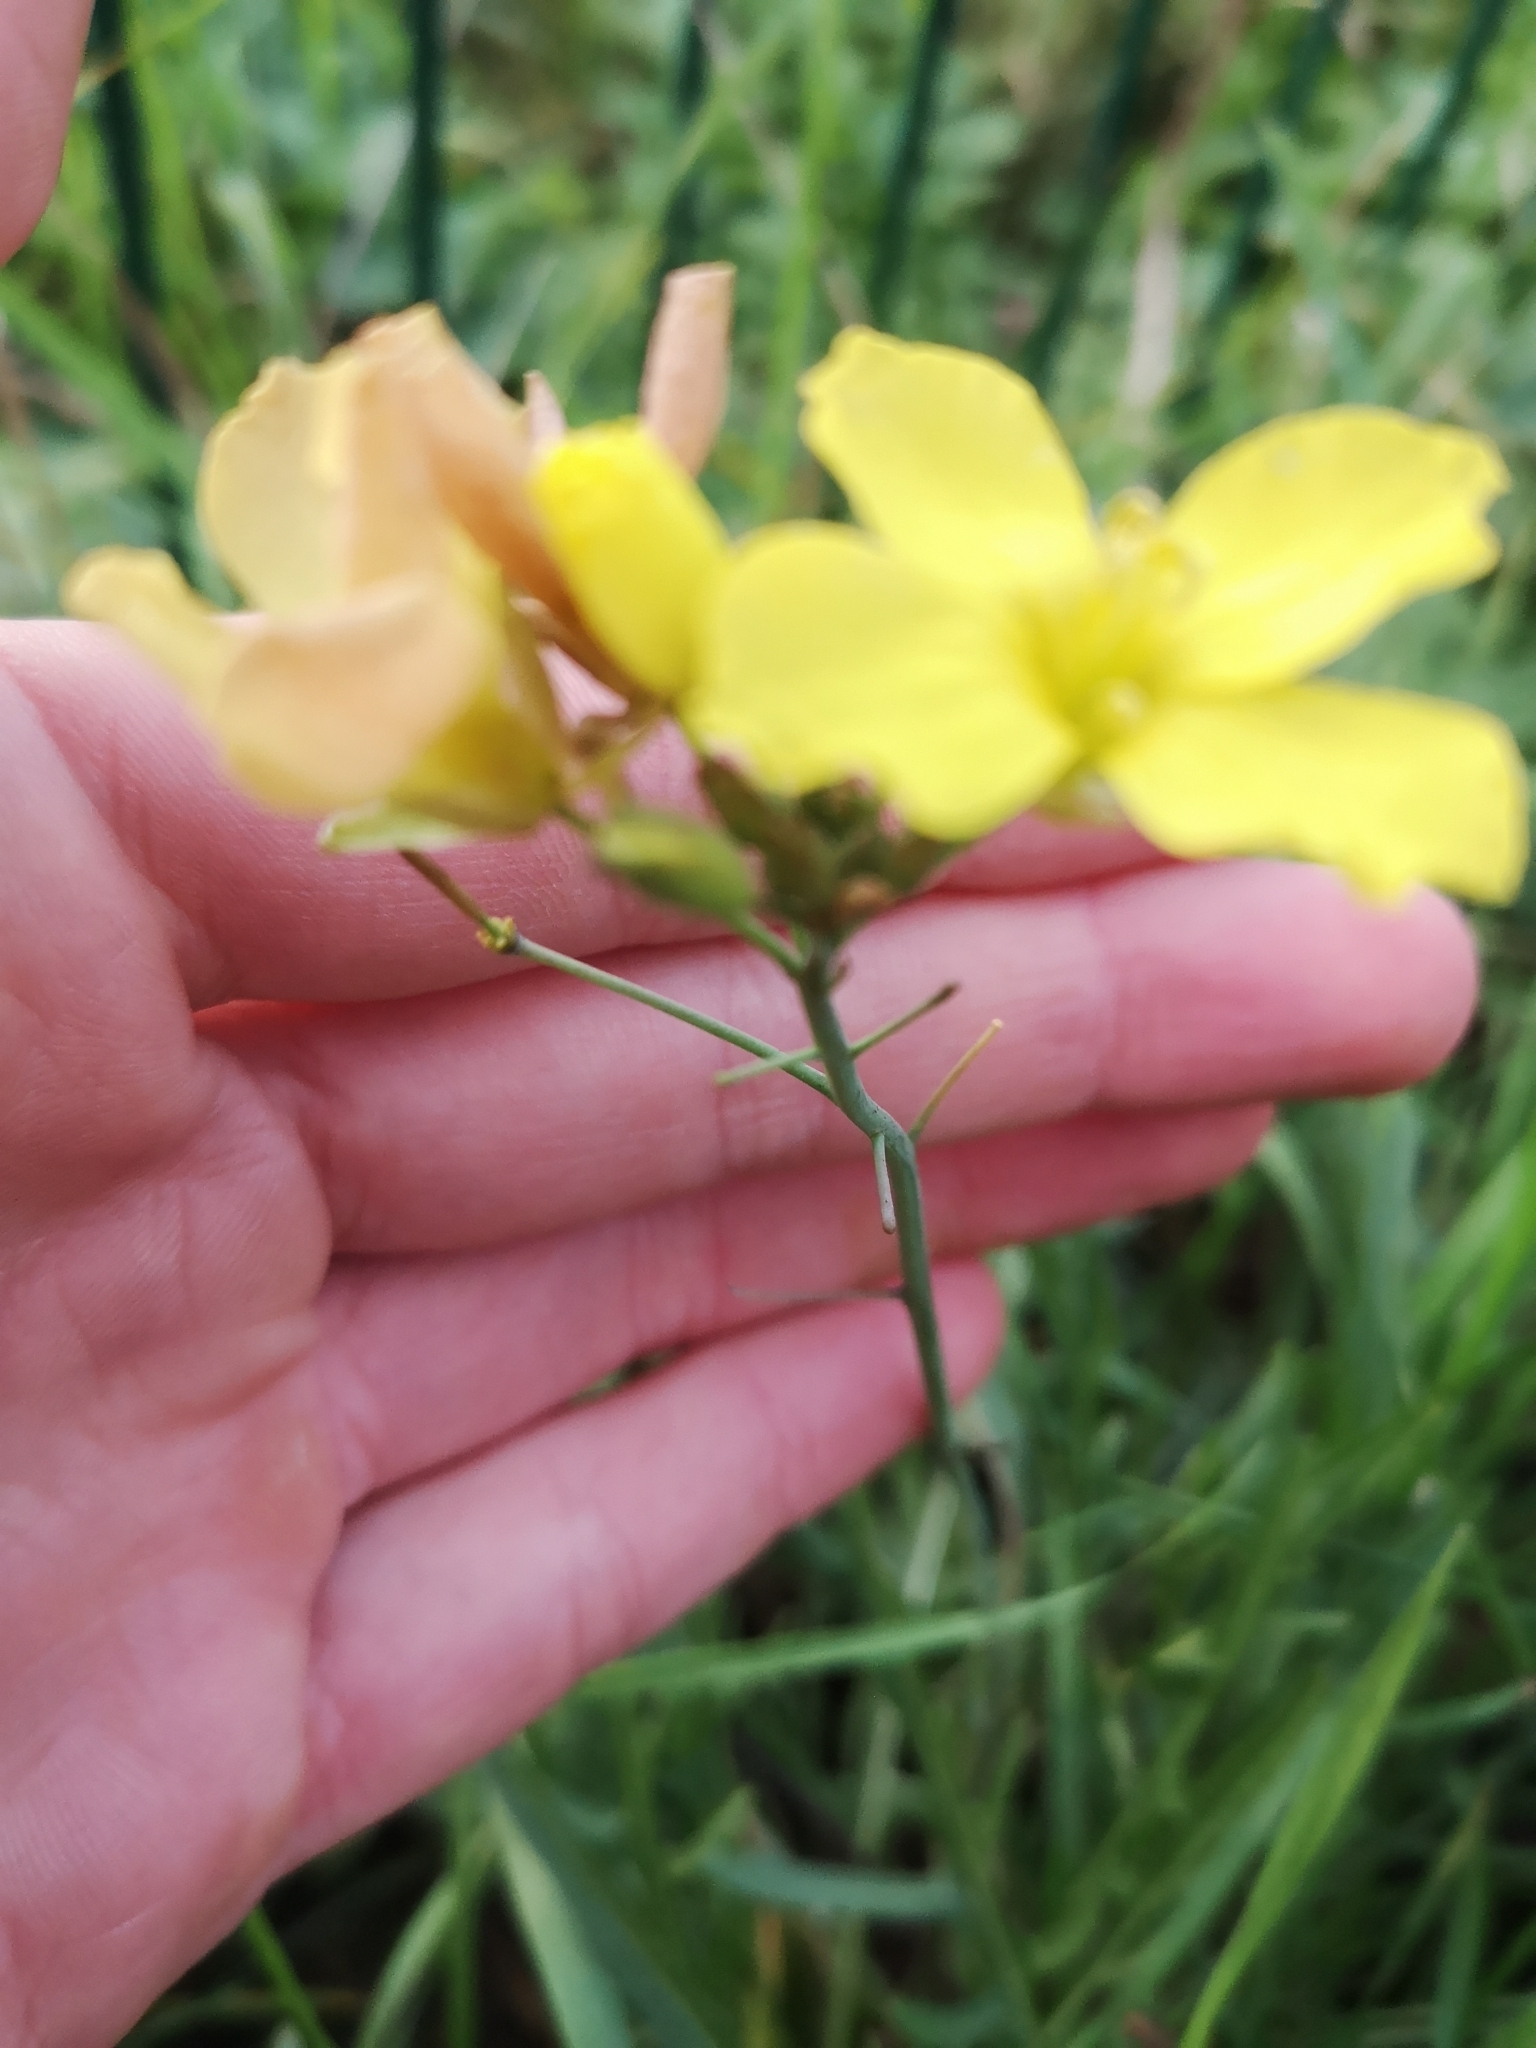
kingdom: Plantae
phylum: Tracheophyta
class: Magnoliopsida
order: Brassicales
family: Brassicaceae
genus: Diplotaxis
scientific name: Diplotaxis tenuifolia
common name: Perennial wall-rocket
